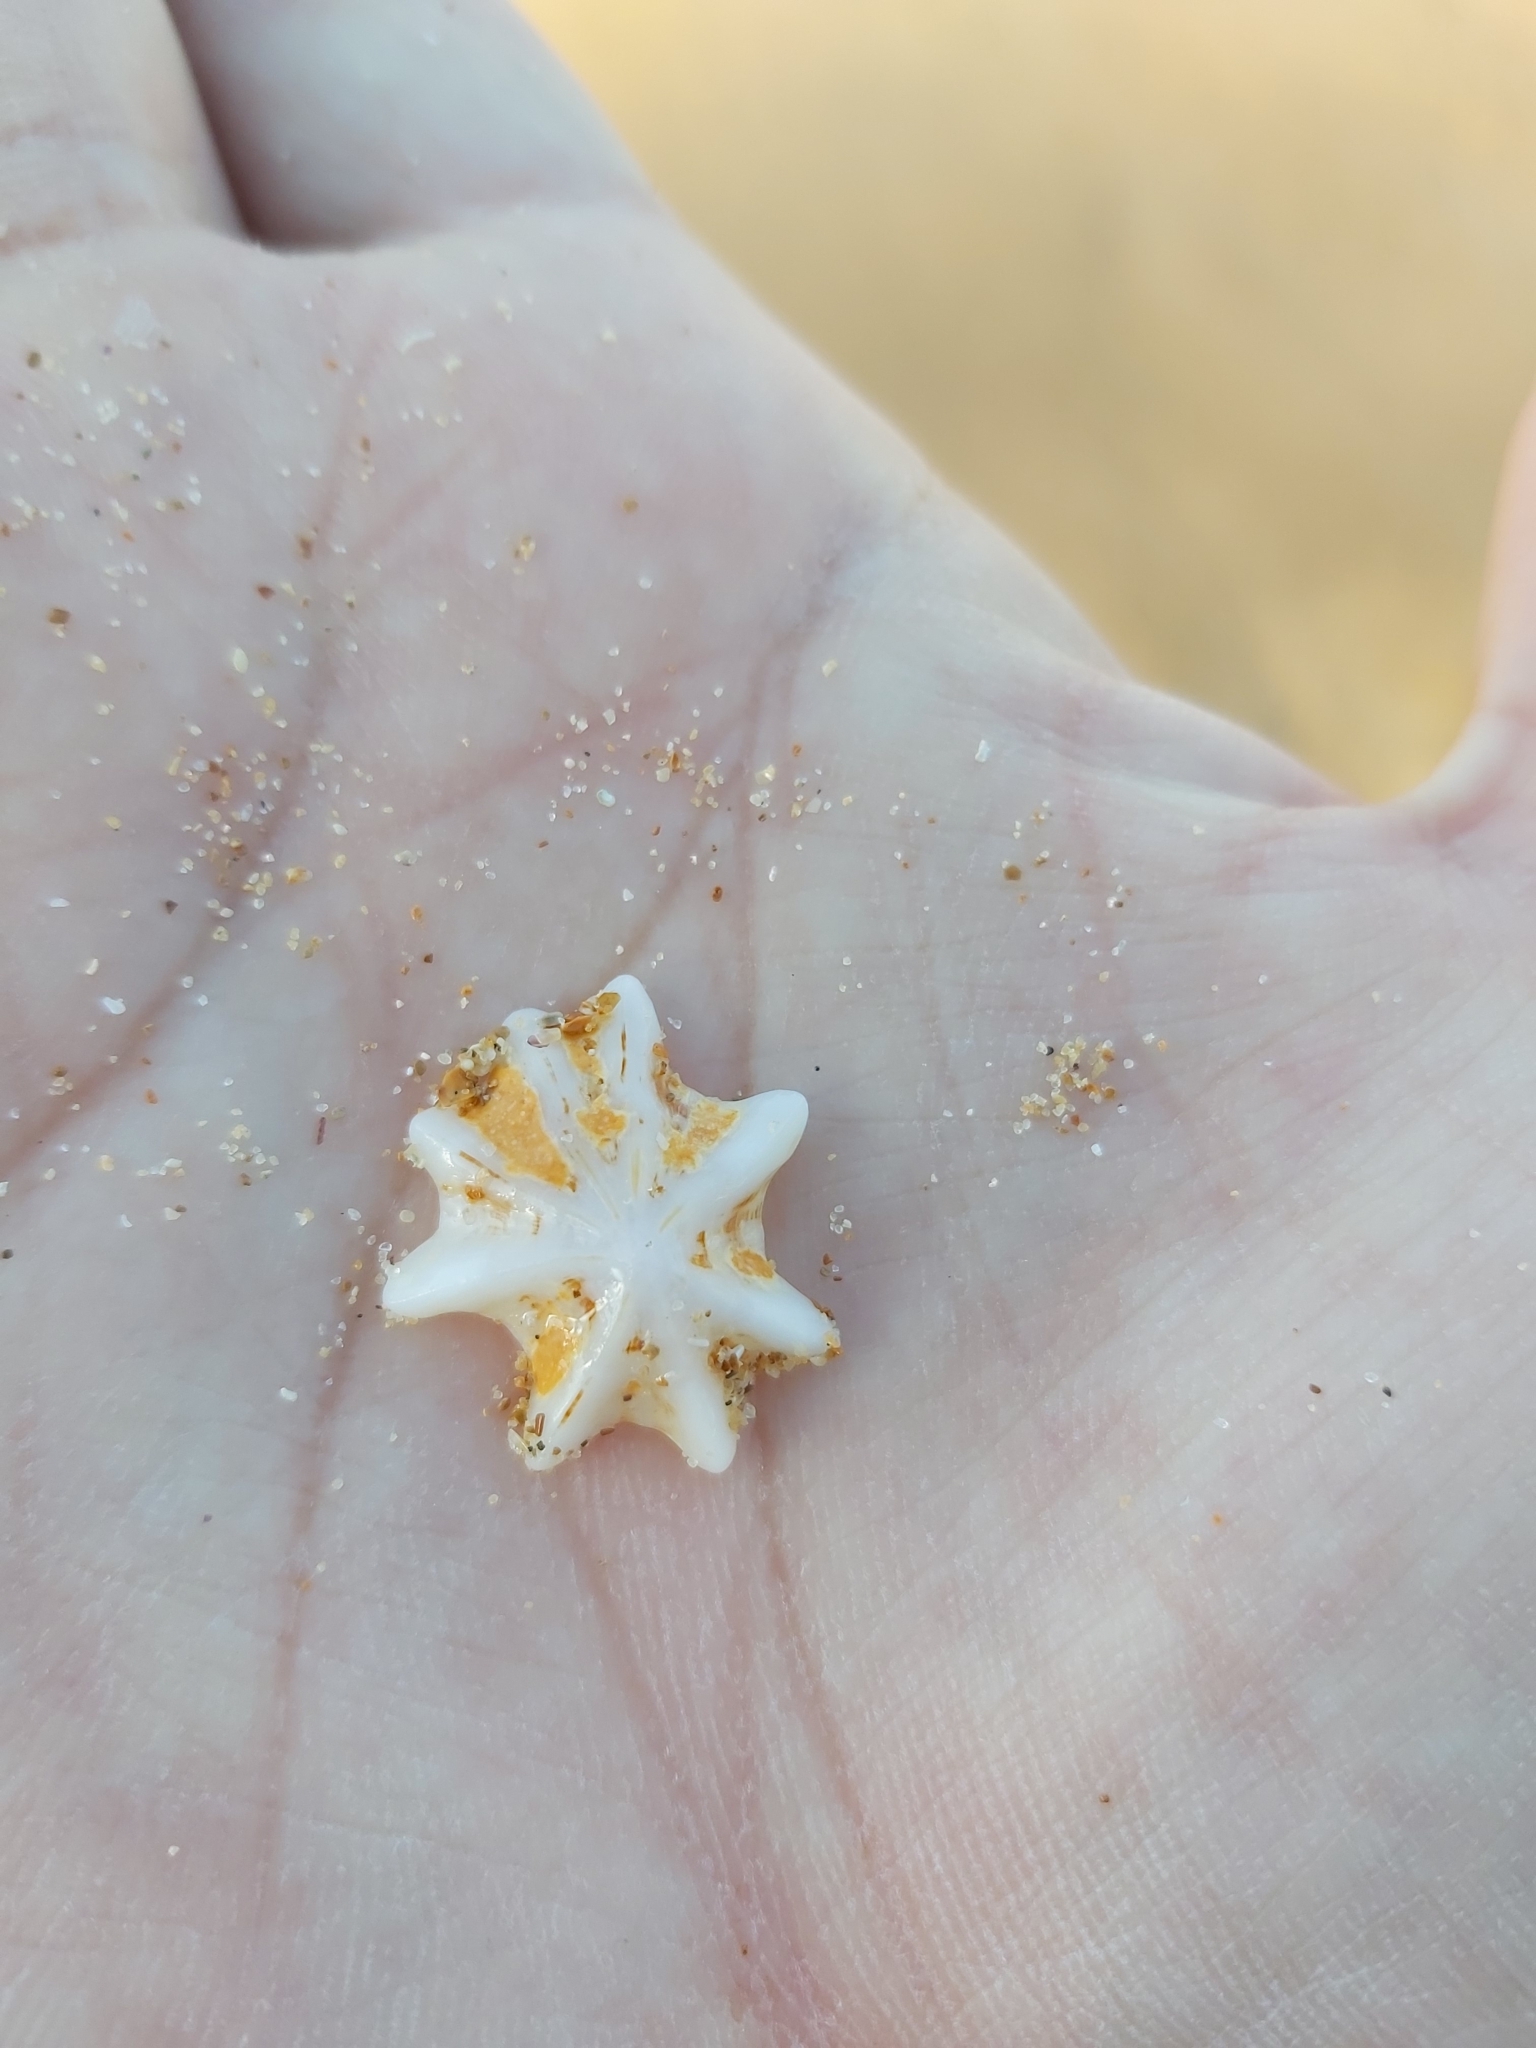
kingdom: Animalia
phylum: Mollusca
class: Gastropoda
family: Patellidae
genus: Scutellastra
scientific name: Scutellastra chapmani
